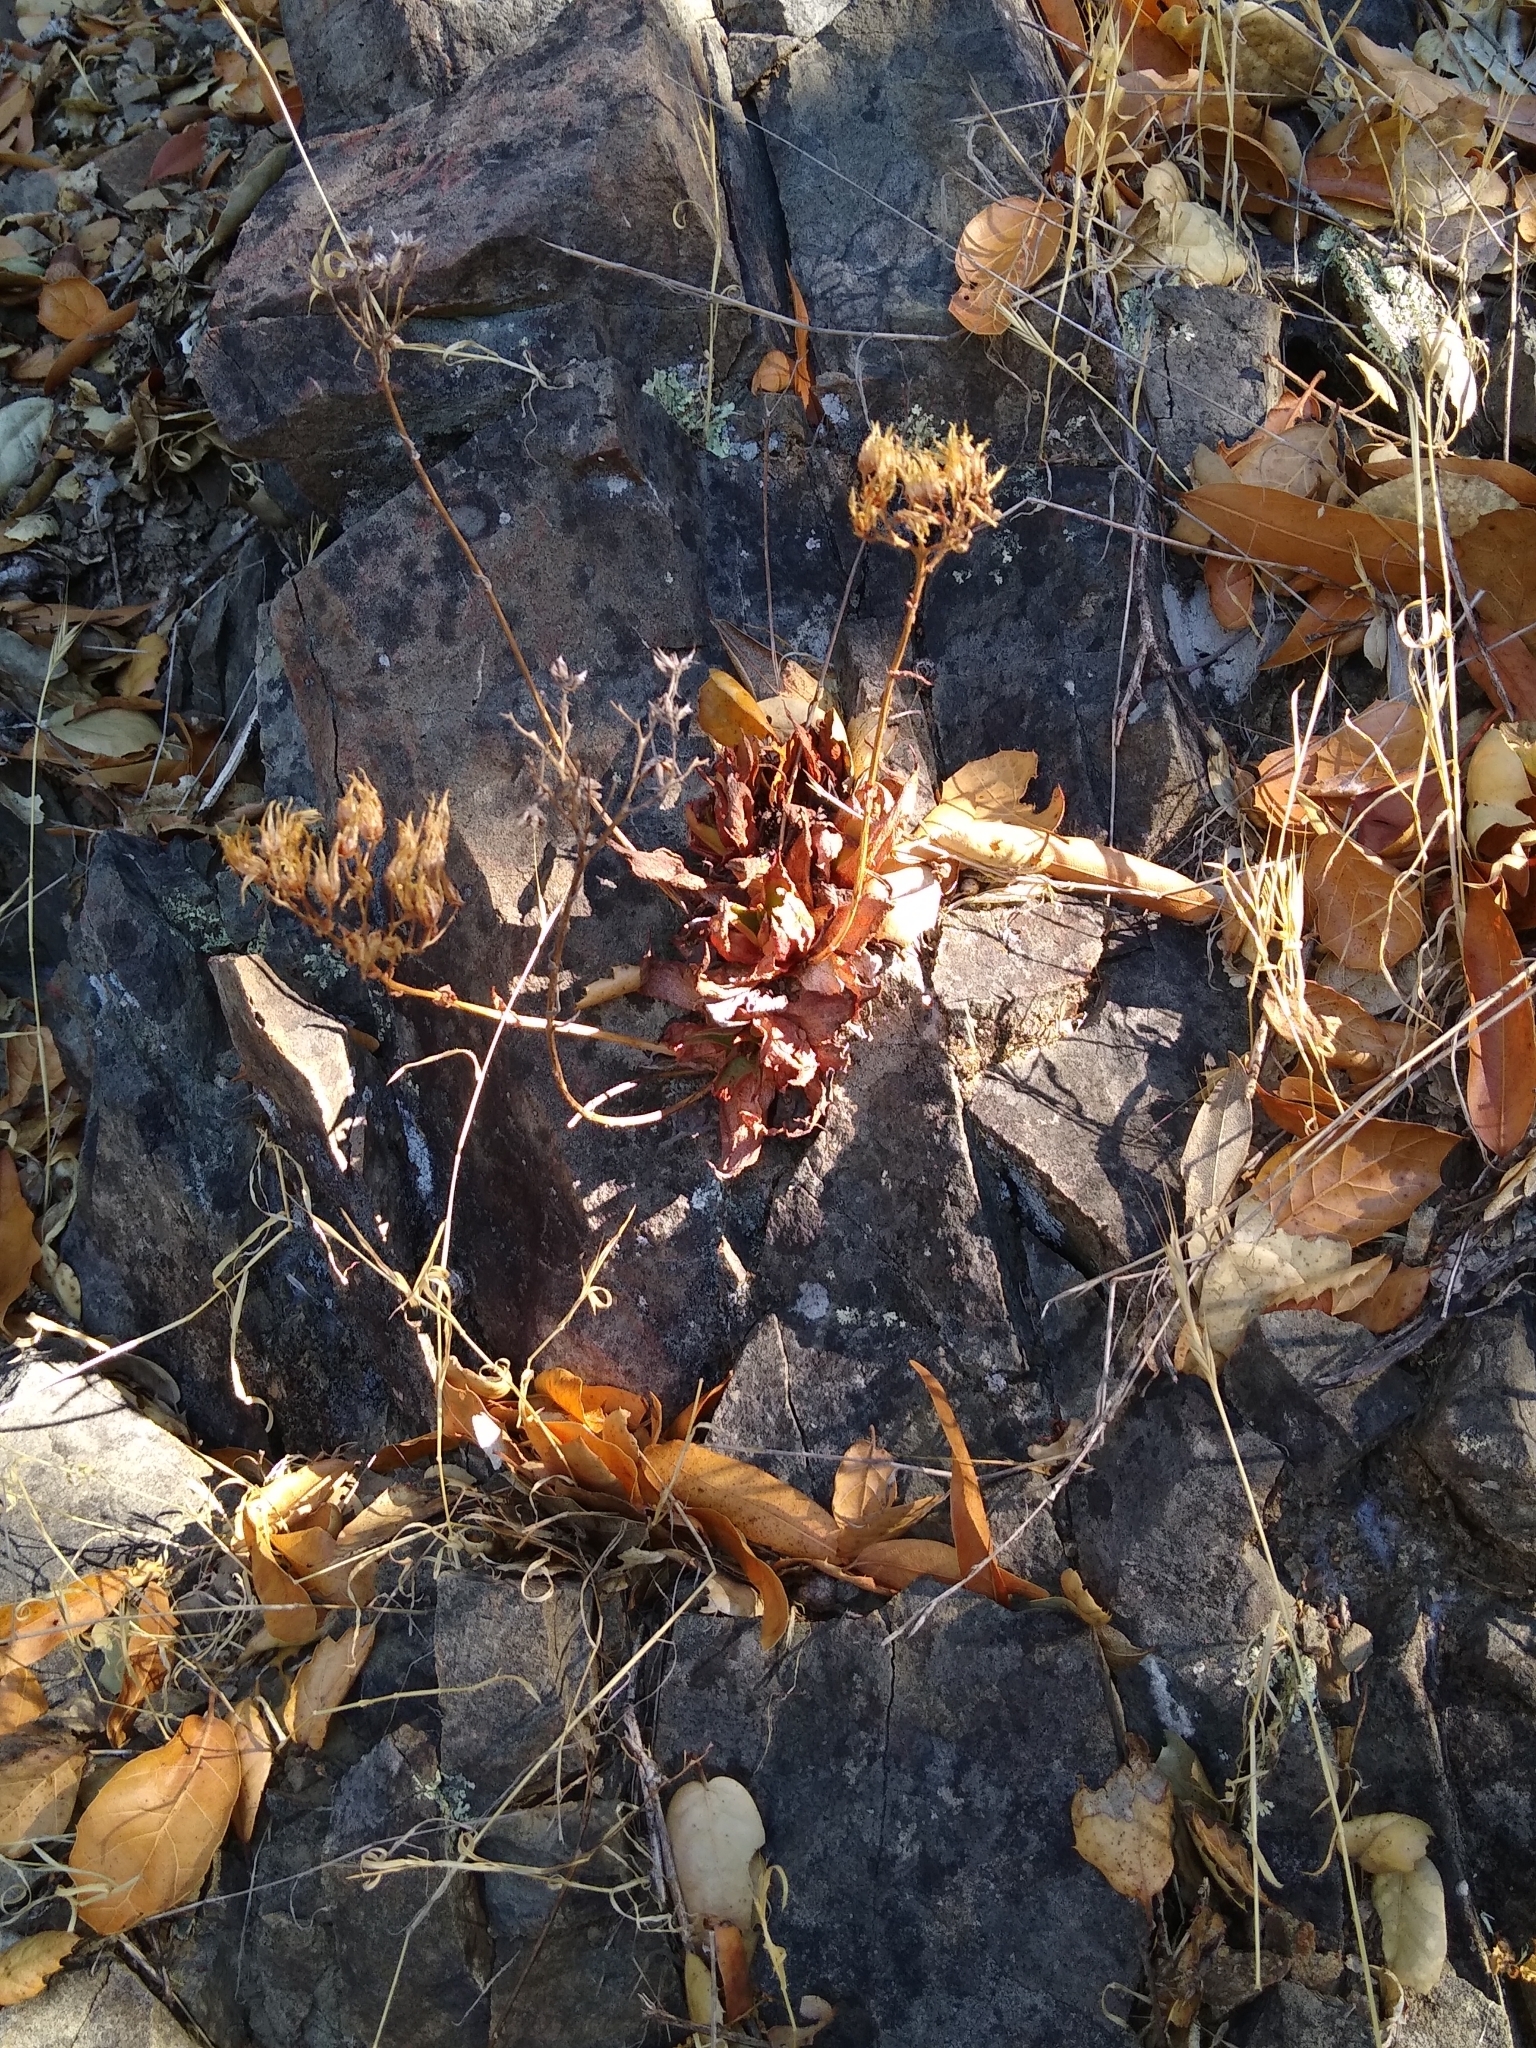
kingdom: Plantae
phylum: Tracheophyta
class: Magnoliopsida
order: Saxifragales
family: Crassulaceae
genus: Dudleya
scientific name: Dudleya cymosa
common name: Canyon dudleya
